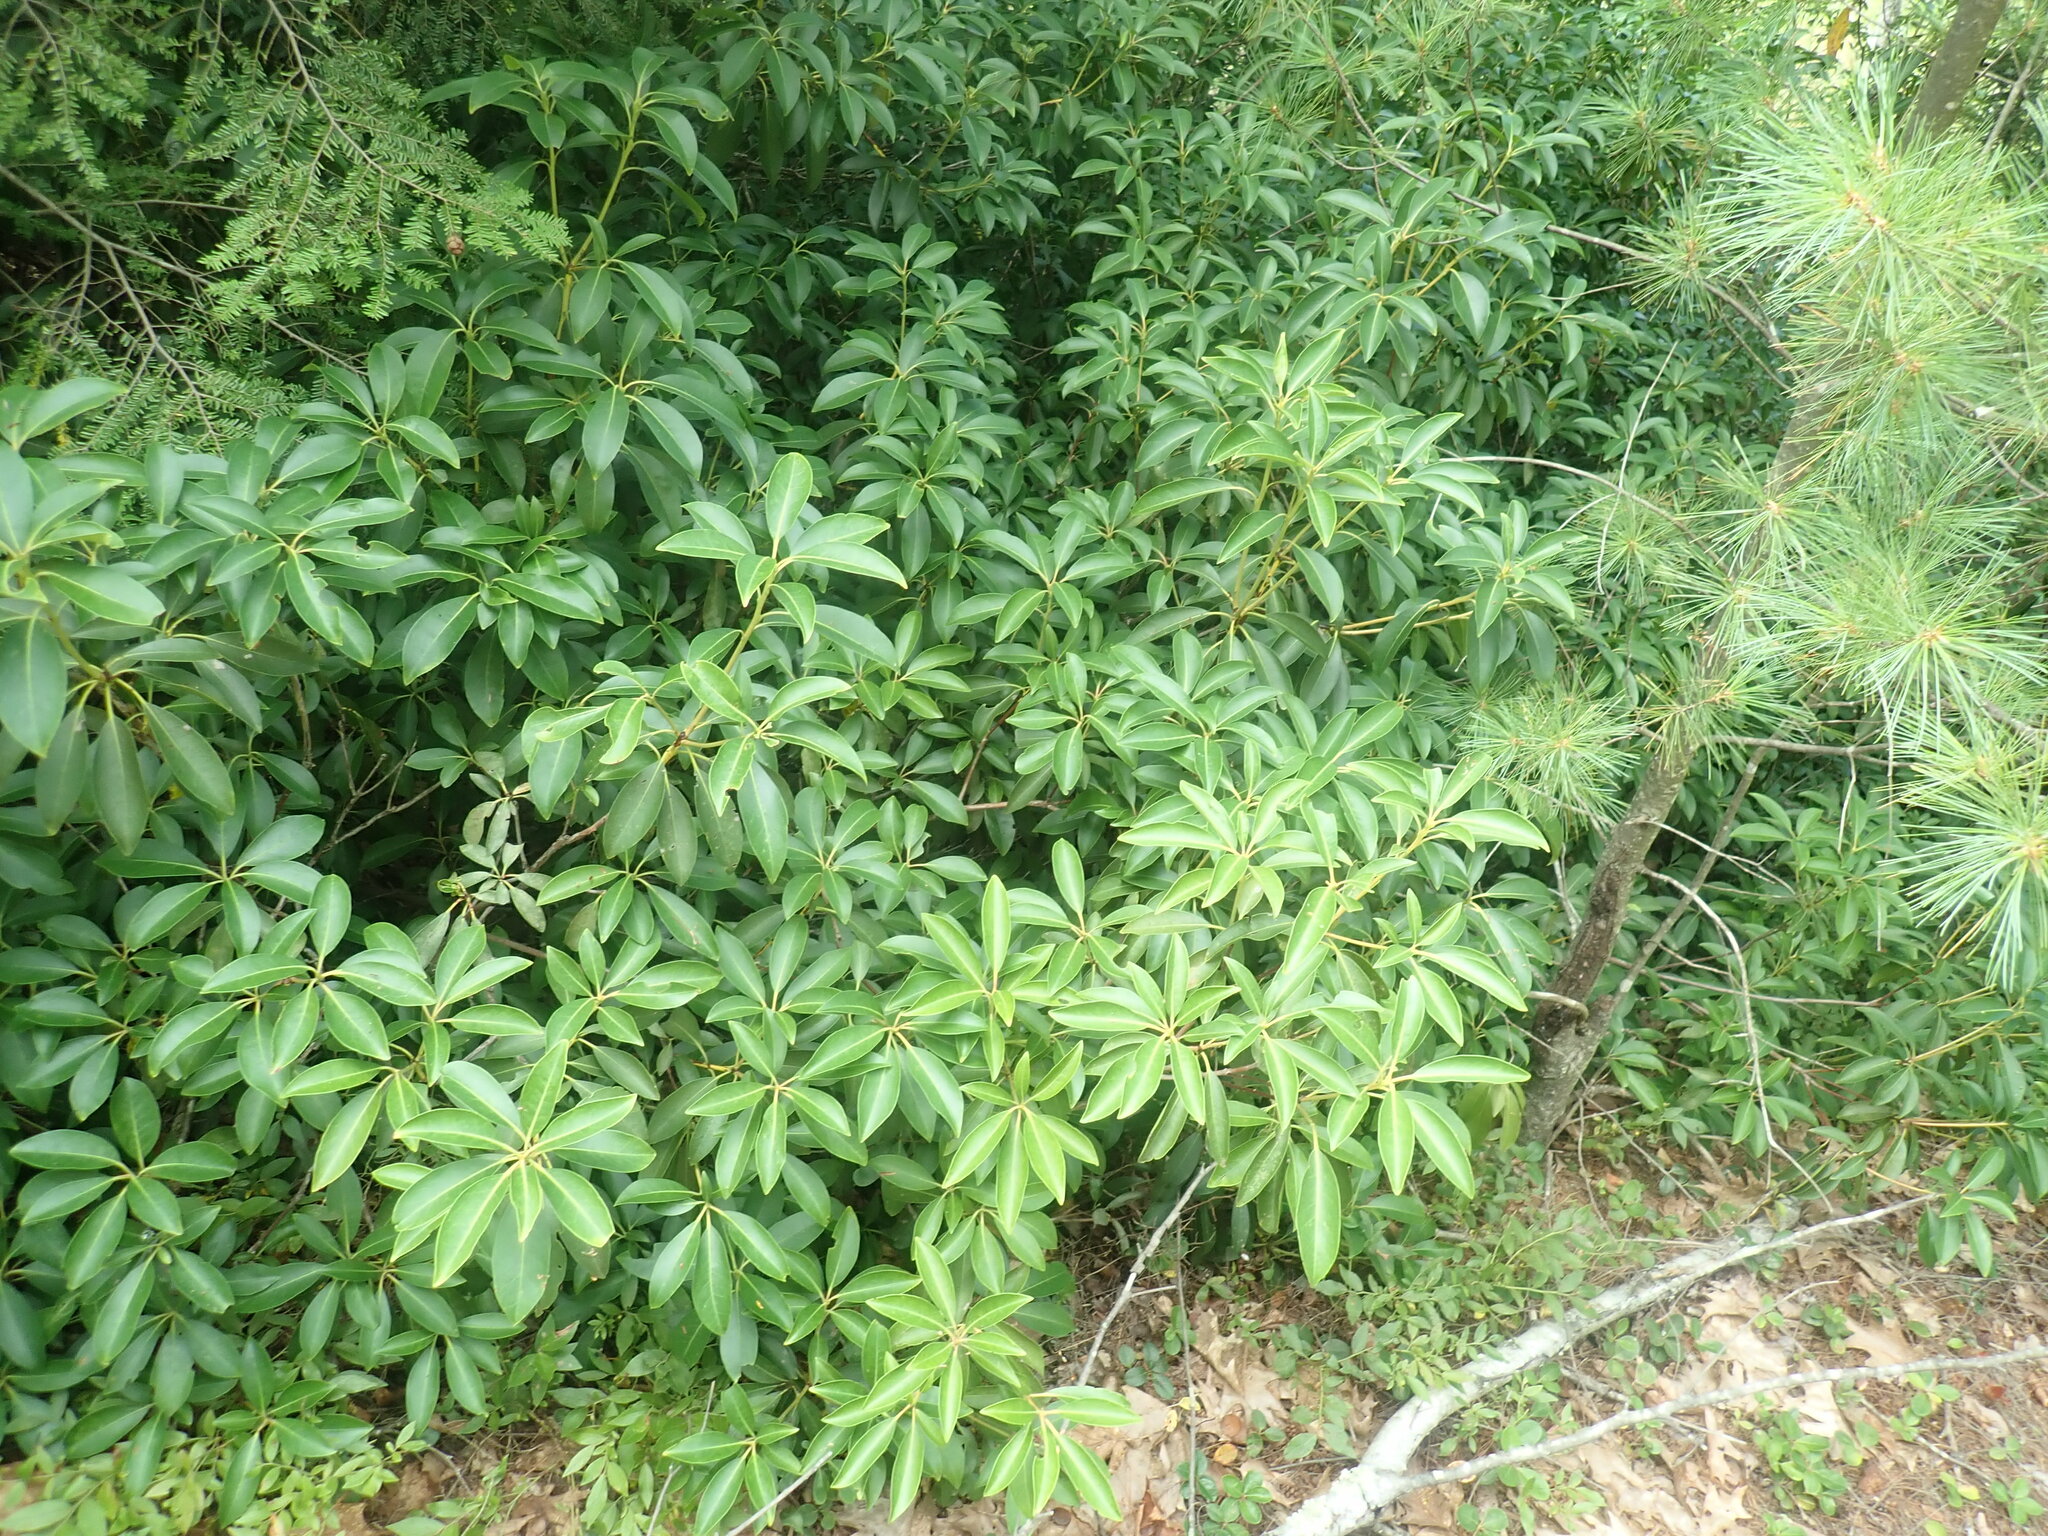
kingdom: Plantae
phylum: Tracheophyta
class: Magnoliopsida
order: Ericales
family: Ericaceae
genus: Kalmia
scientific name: Kalmia latifolia
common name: Mountain-laurel
